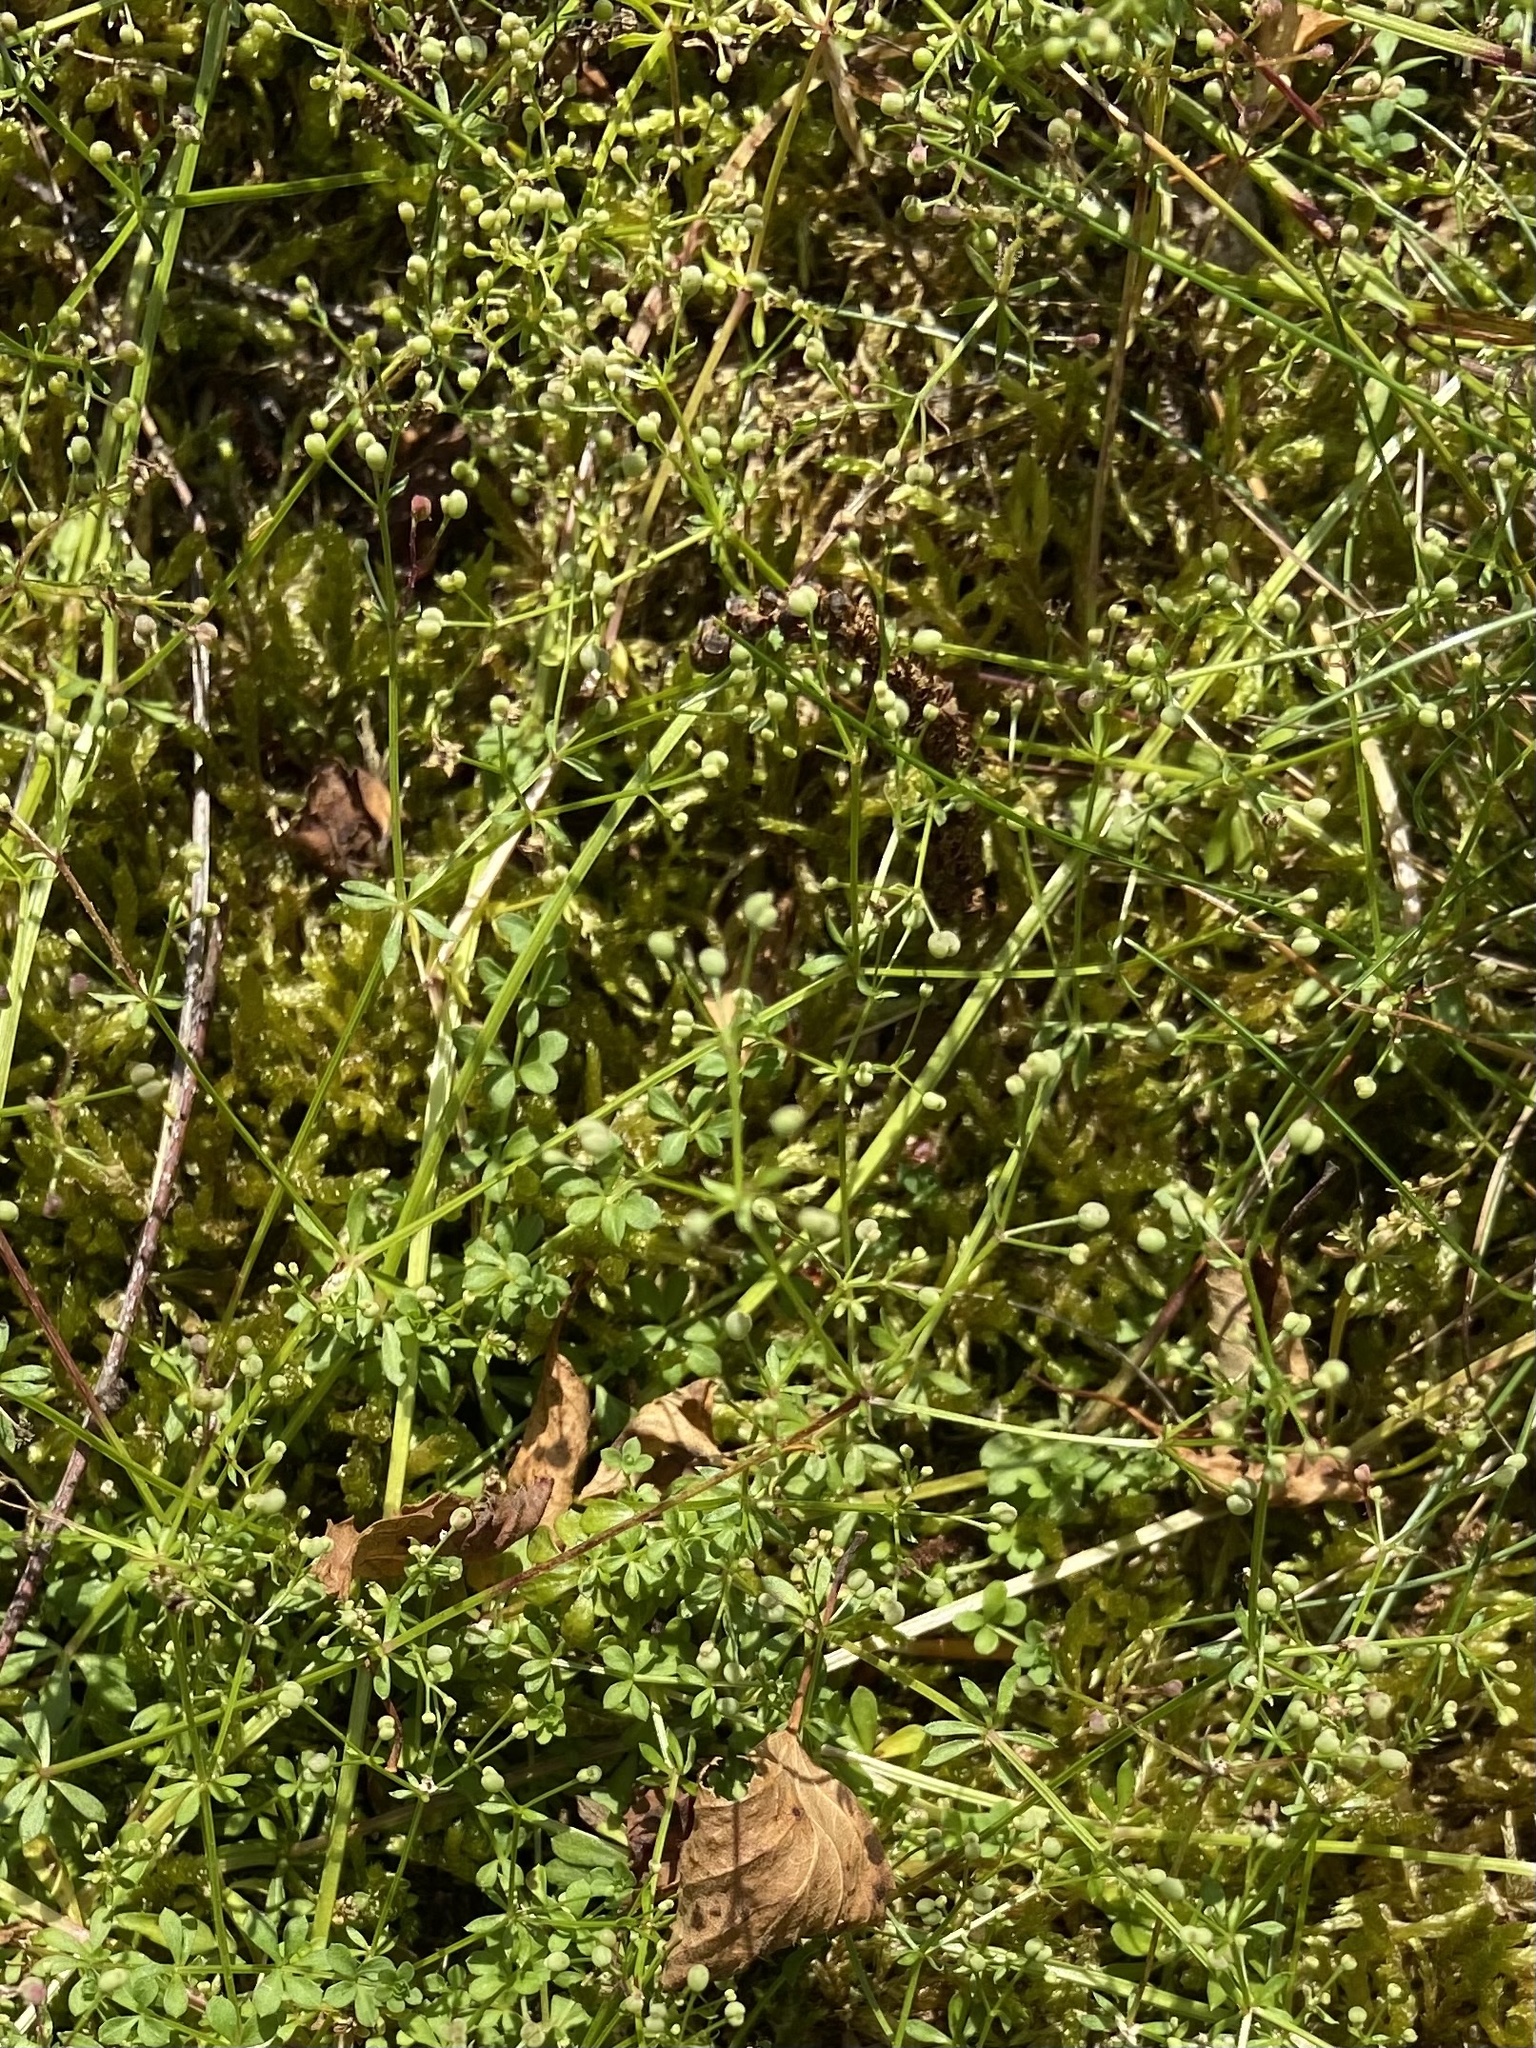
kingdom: Plantae
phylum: Tracheophyta
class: Magnoliopsida
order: Gentianales
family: Rubiaceae
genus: Galium
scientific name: Galium saxatile
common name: Heath bedstraw
